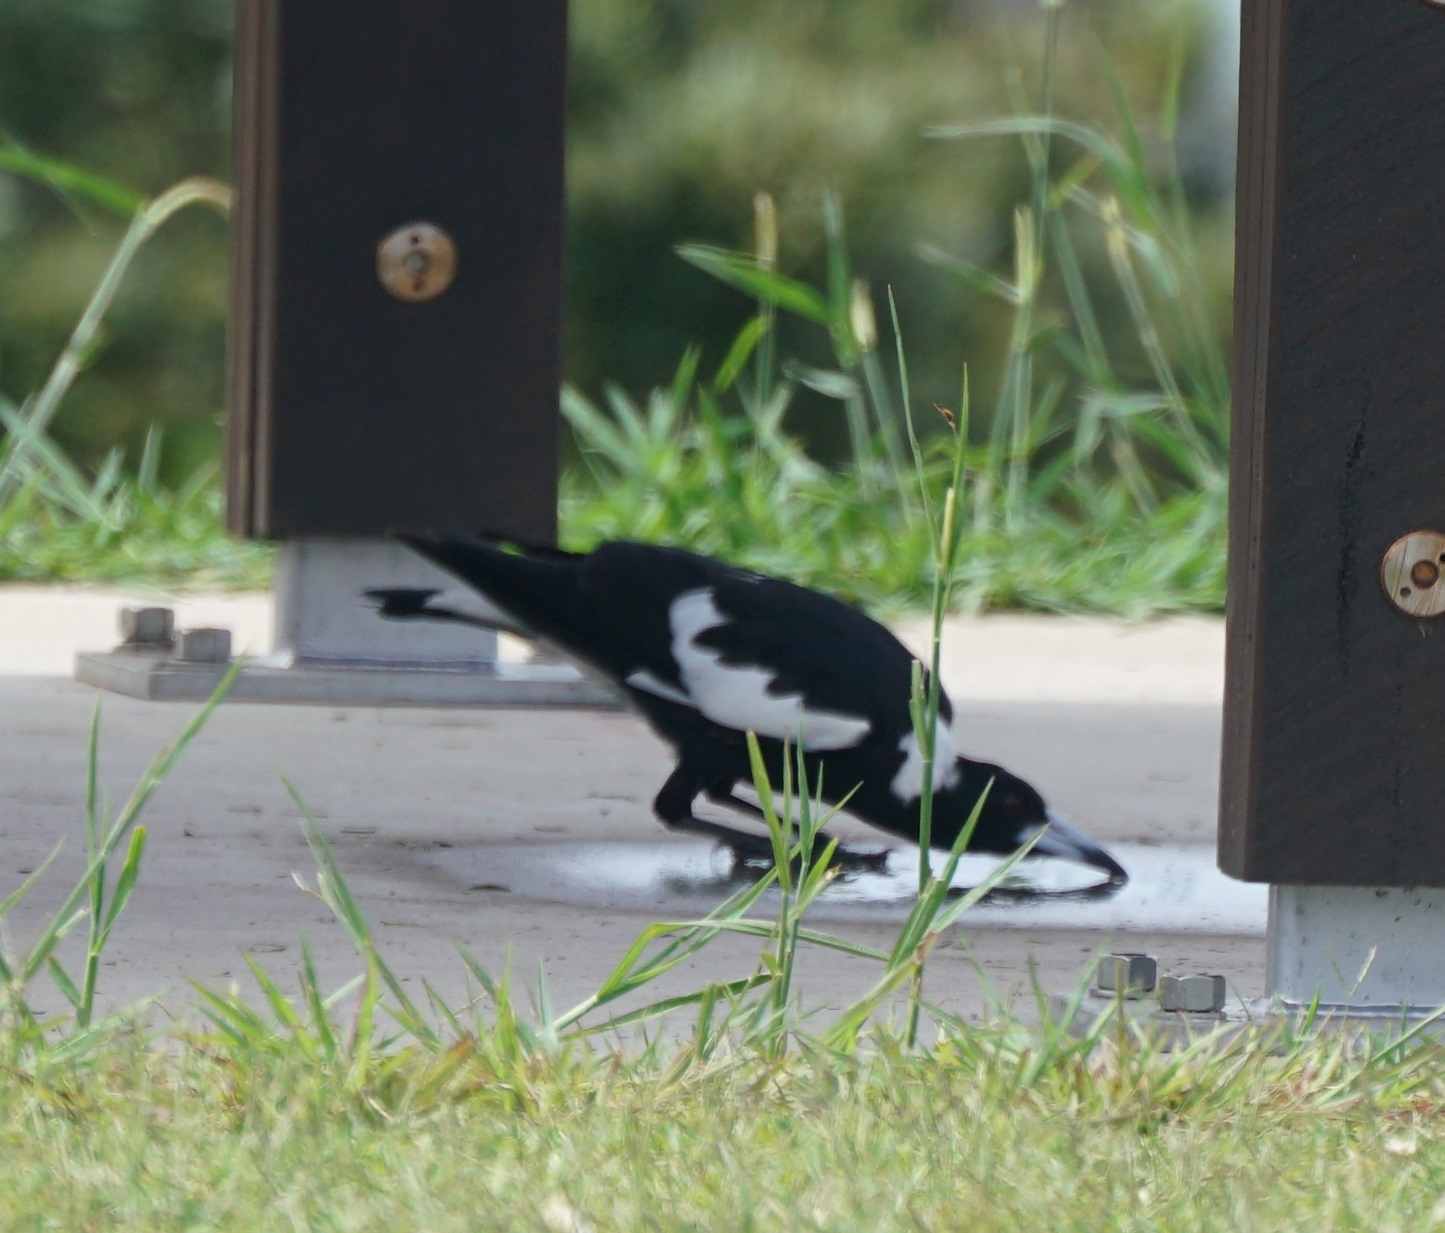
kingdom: Animalia
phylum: Chordata
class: Aves
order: Passeriformes
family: Cracticidae
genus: Gymnorhina
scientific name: Gymnorhina tibicen
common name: Australian magpie
